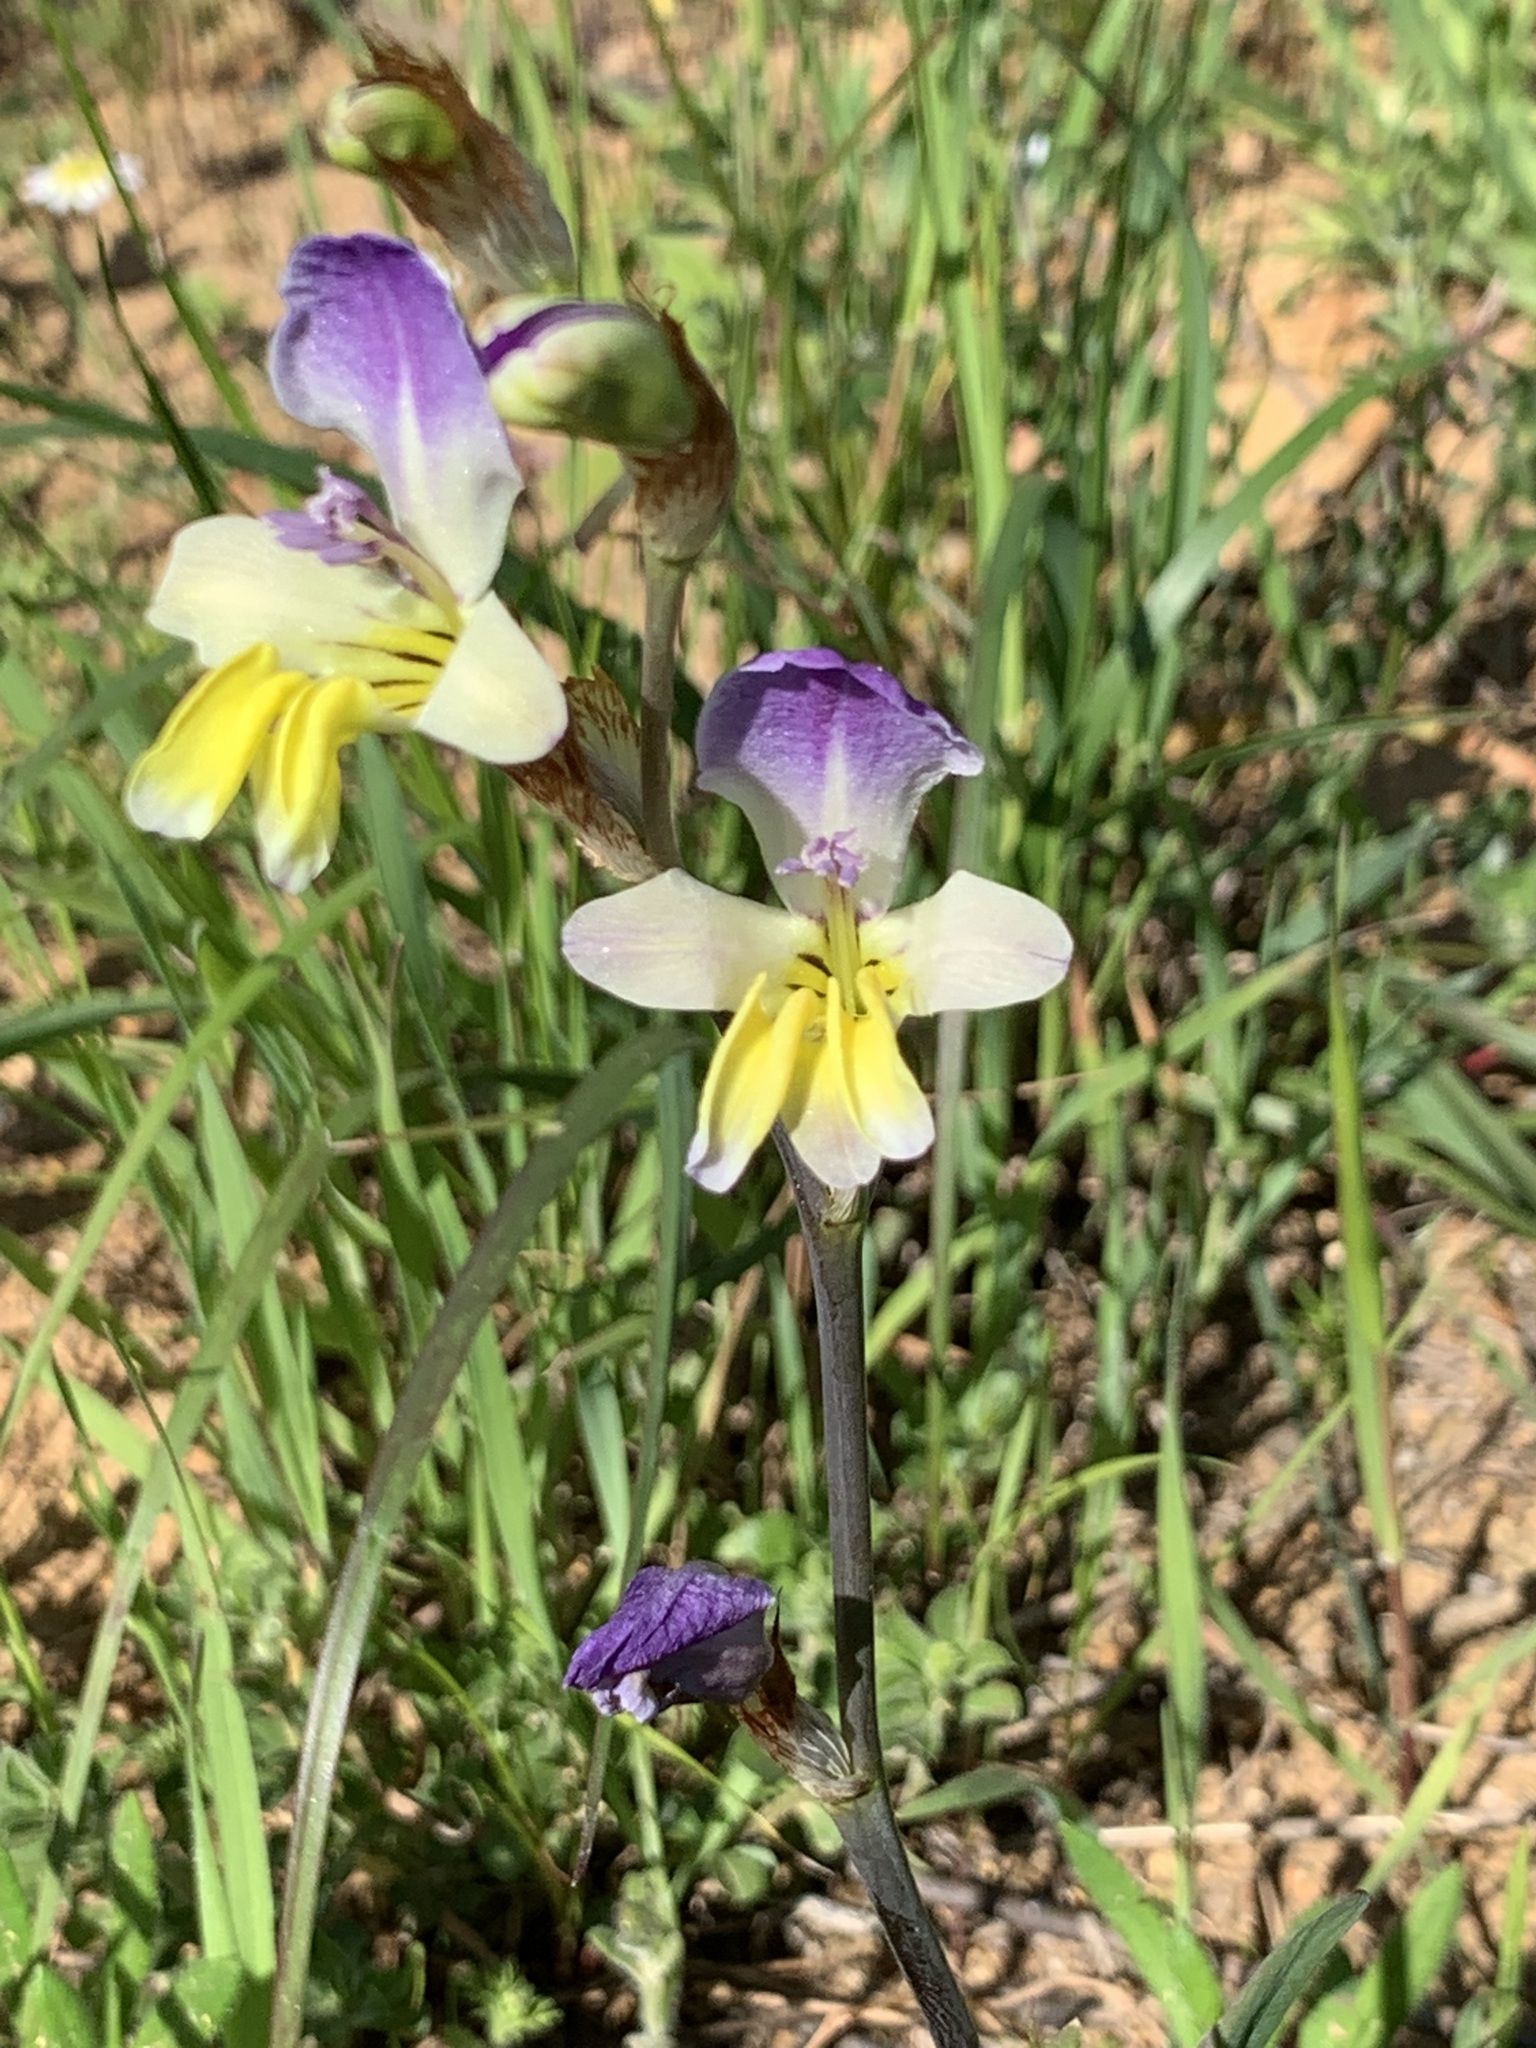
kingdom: Plantae
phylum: Tracheophyta
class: Liliopsida
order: Asparagales
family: Iridaceae
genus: Sparaxis
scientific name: Sparaxis villosa
